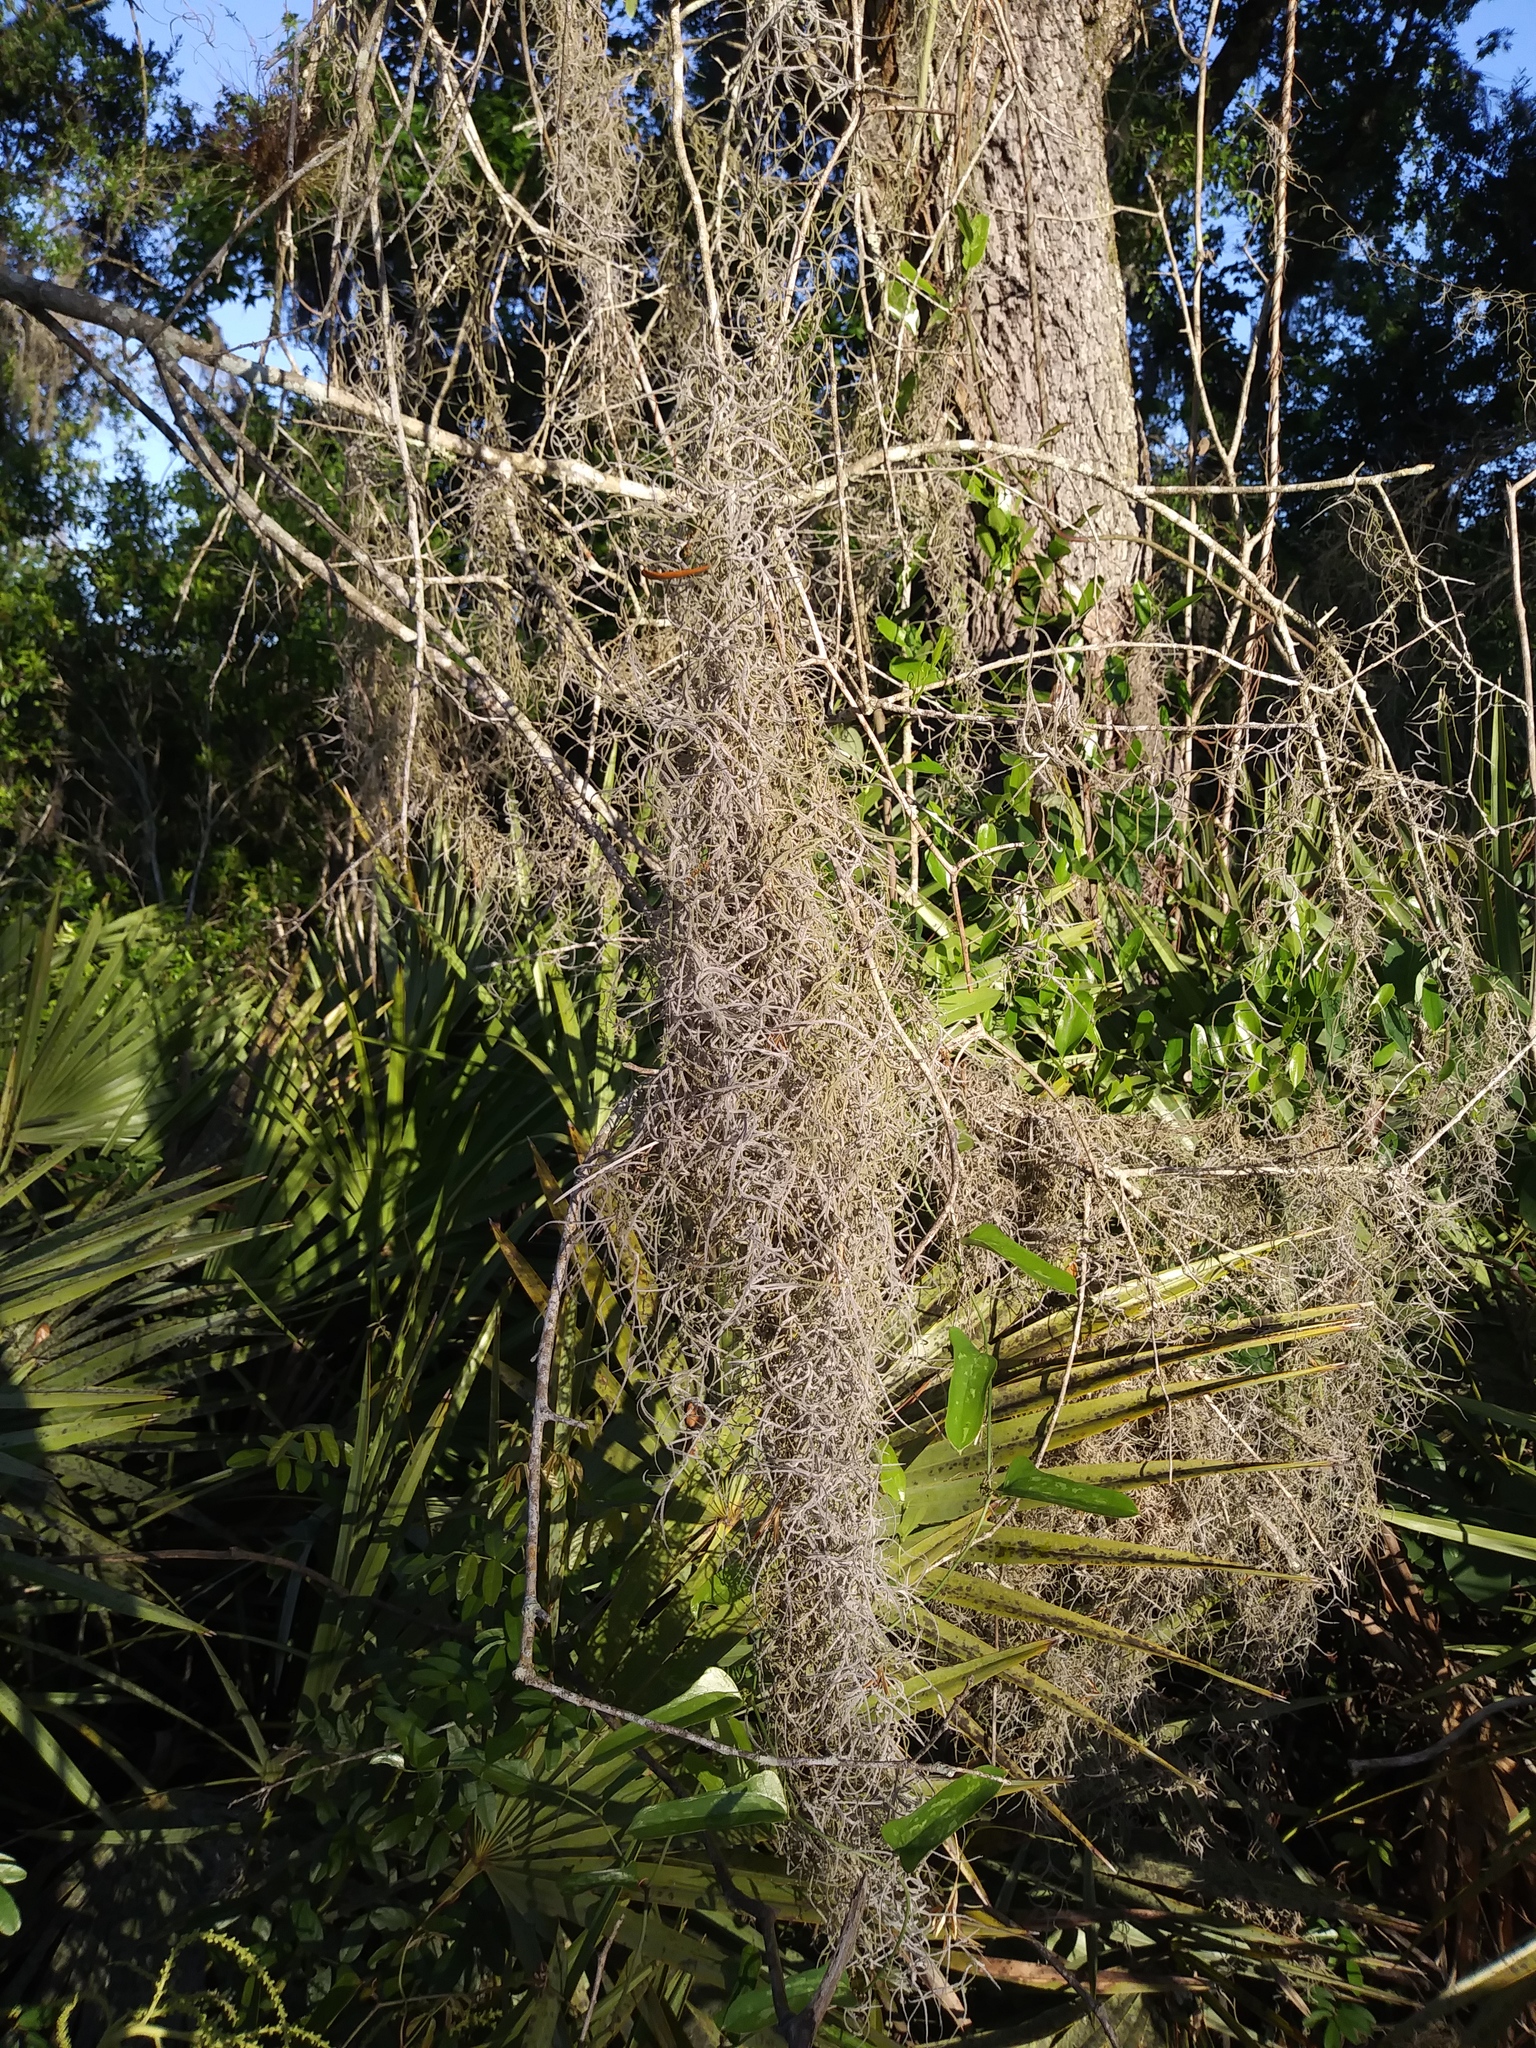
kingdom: Plantae
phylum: Tracheophyta
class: Liliopsida
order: Poales
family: Bromeliaceae
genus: Tillandsia
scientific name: Tillandsia usneoides
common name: Spanish moss
